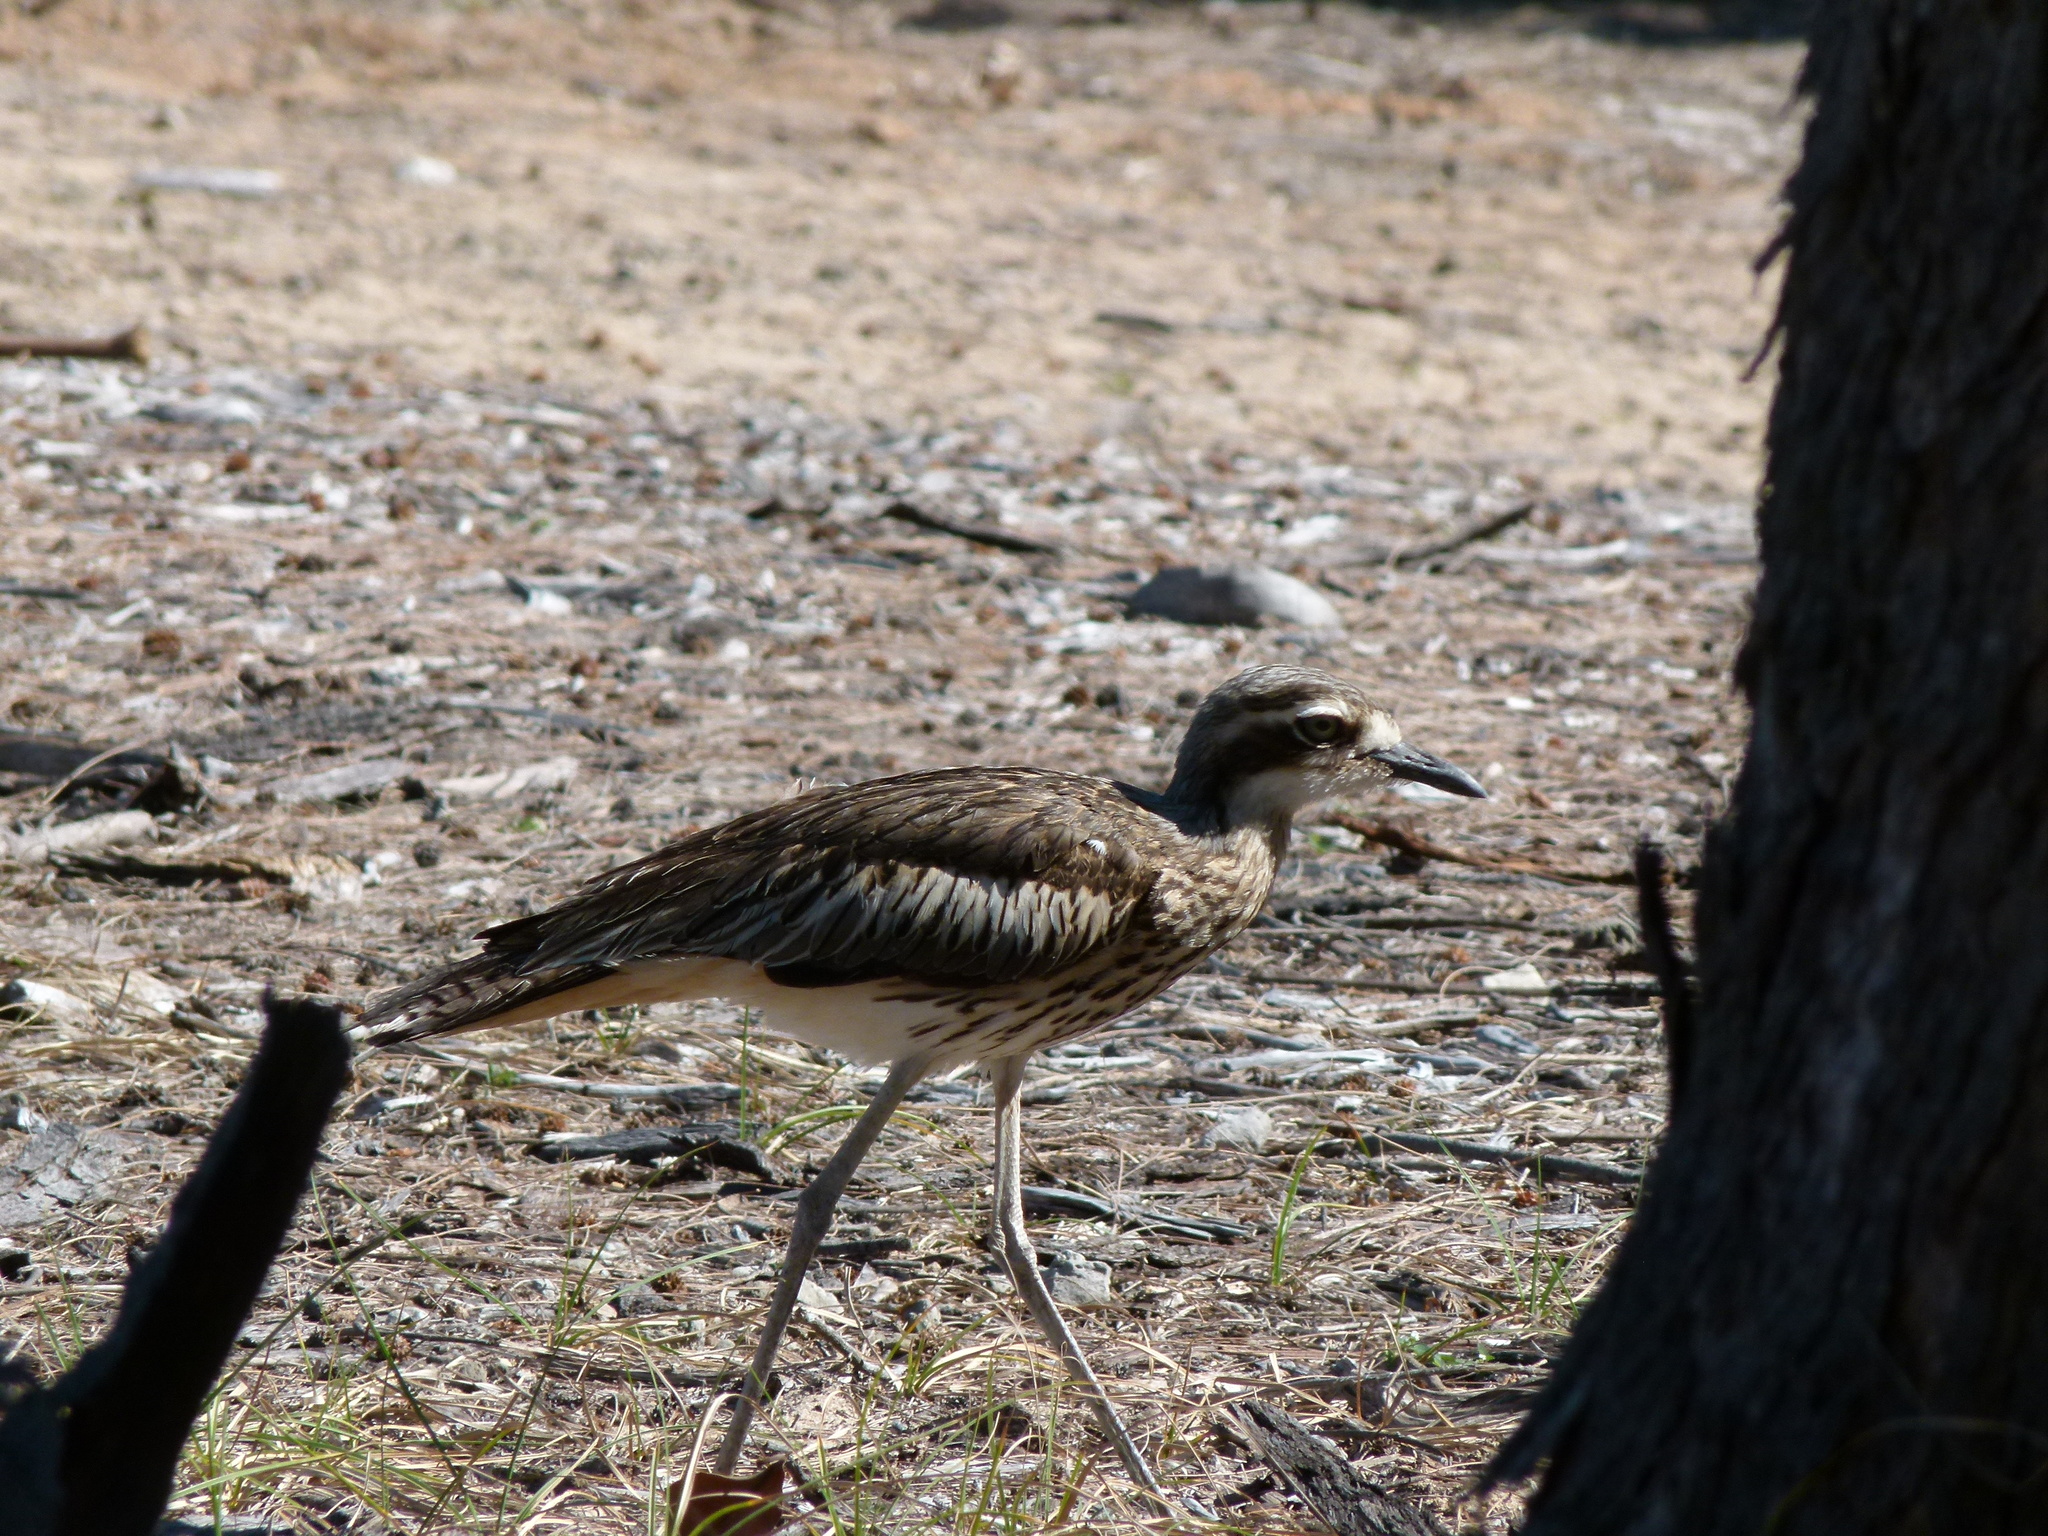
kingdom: Animalia
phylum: Chordata
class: Aves
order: Charadriiformes
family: Burhinidae
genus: Burhinus
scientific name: Burhinus grallarius
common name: Bush stone-curlew
